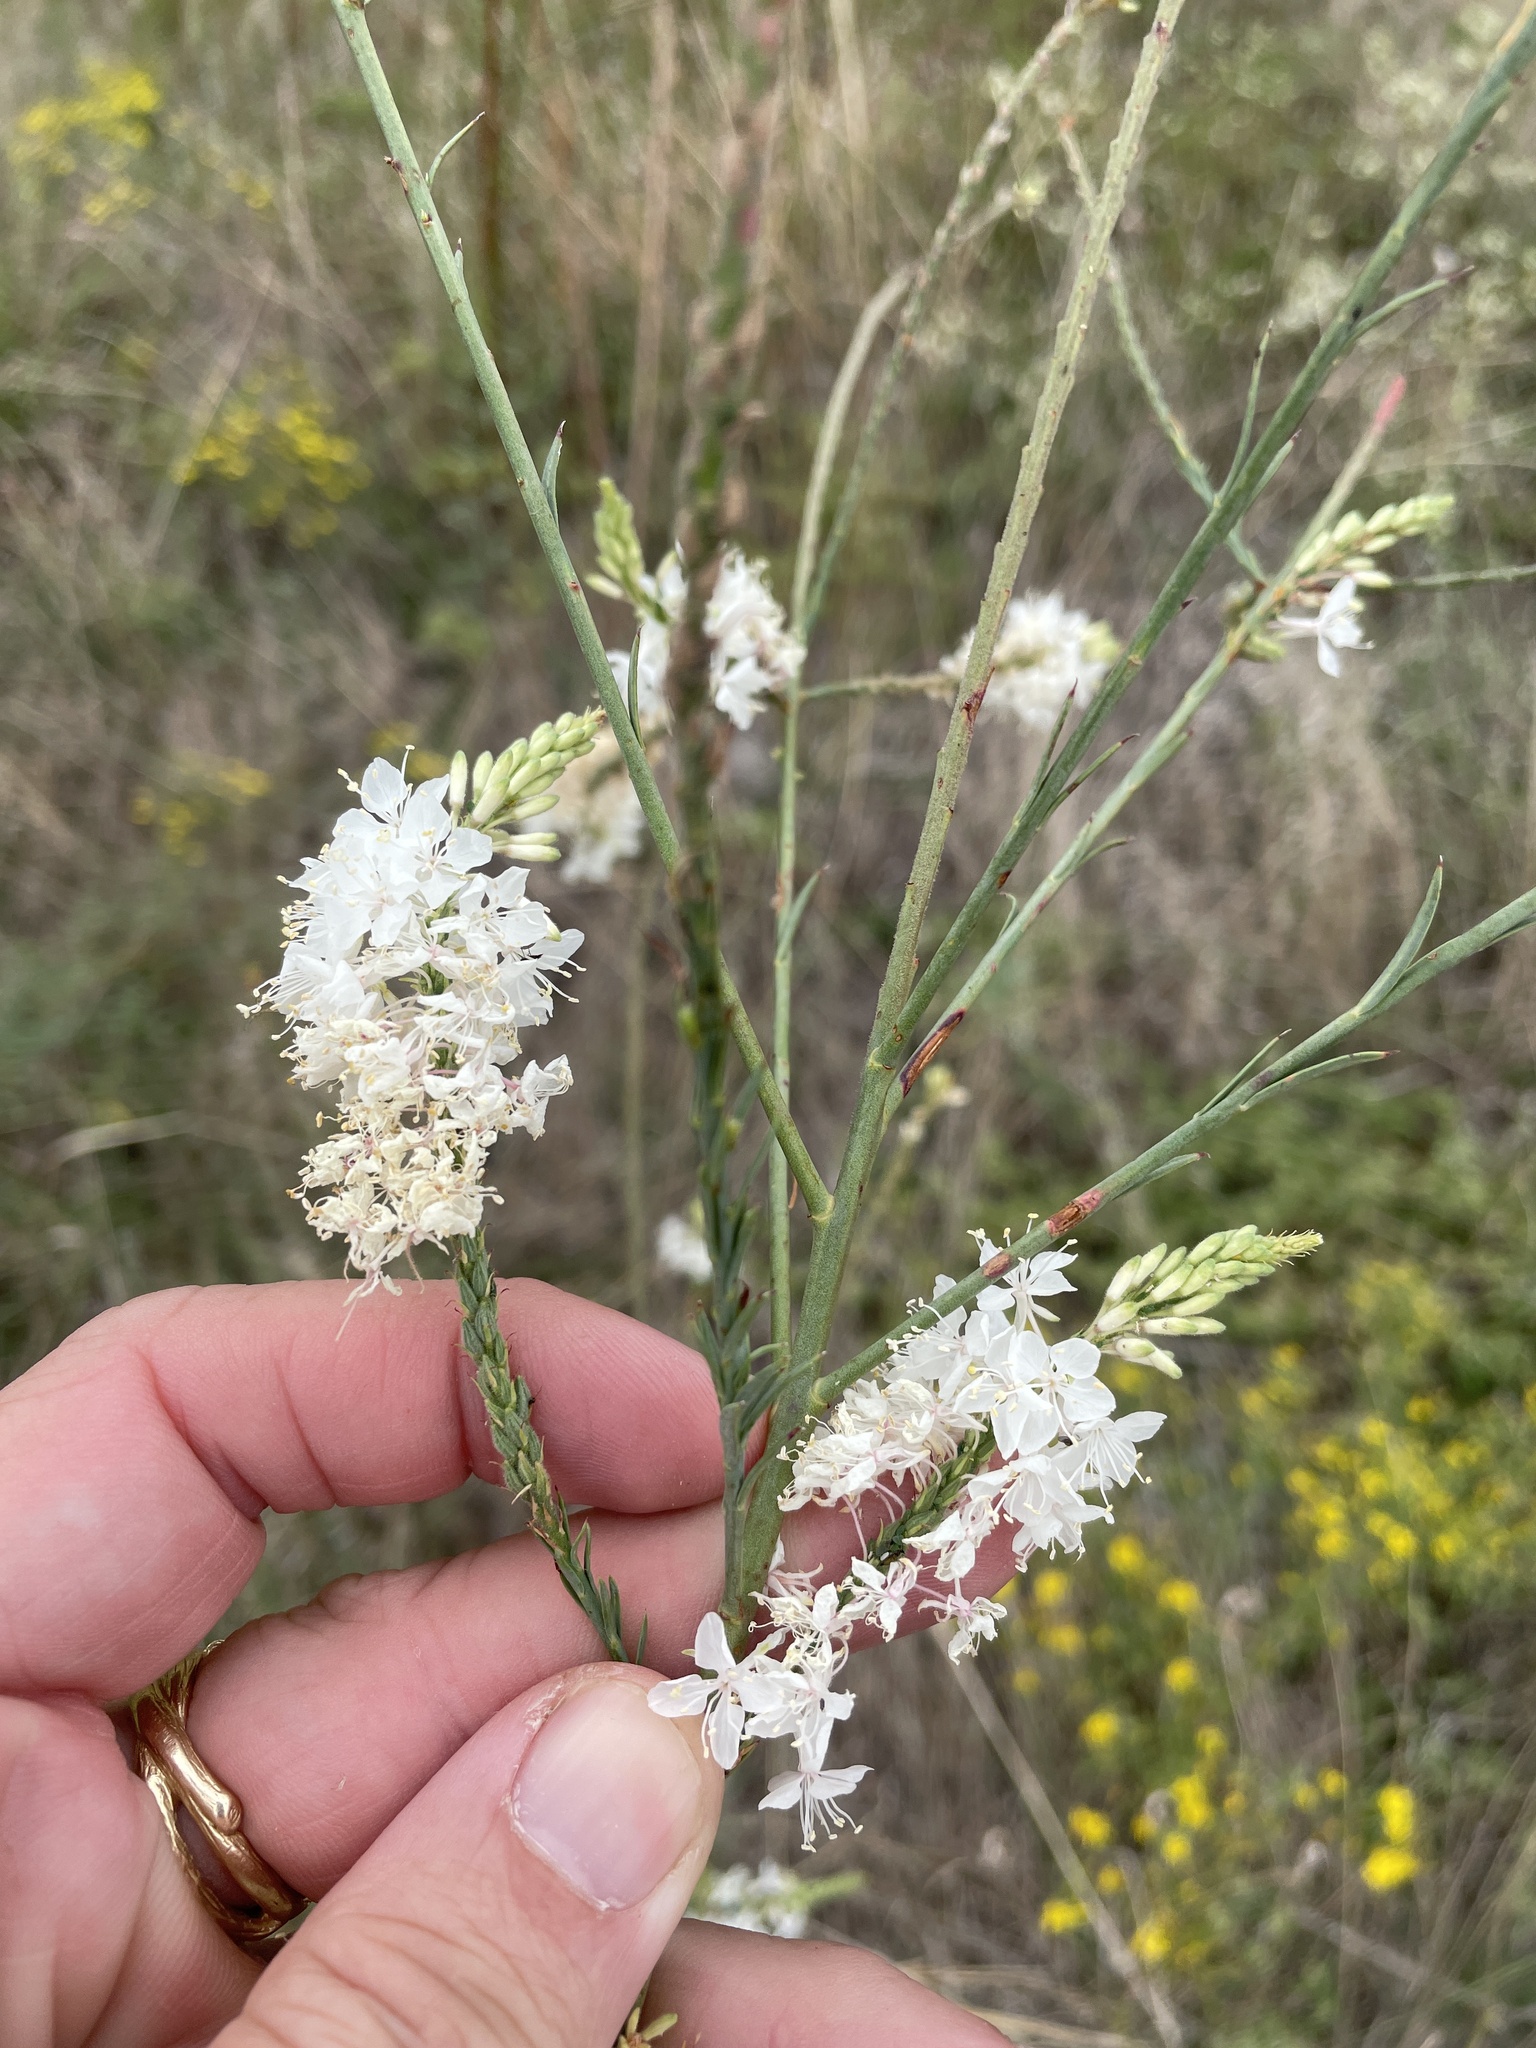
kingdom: Plantae
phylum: Tracheophyta
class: Magnoliopsida
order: Myrtales
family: Onagraceae
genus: Oenothera
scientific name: Oenothera glaucifolia
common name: False gaura
